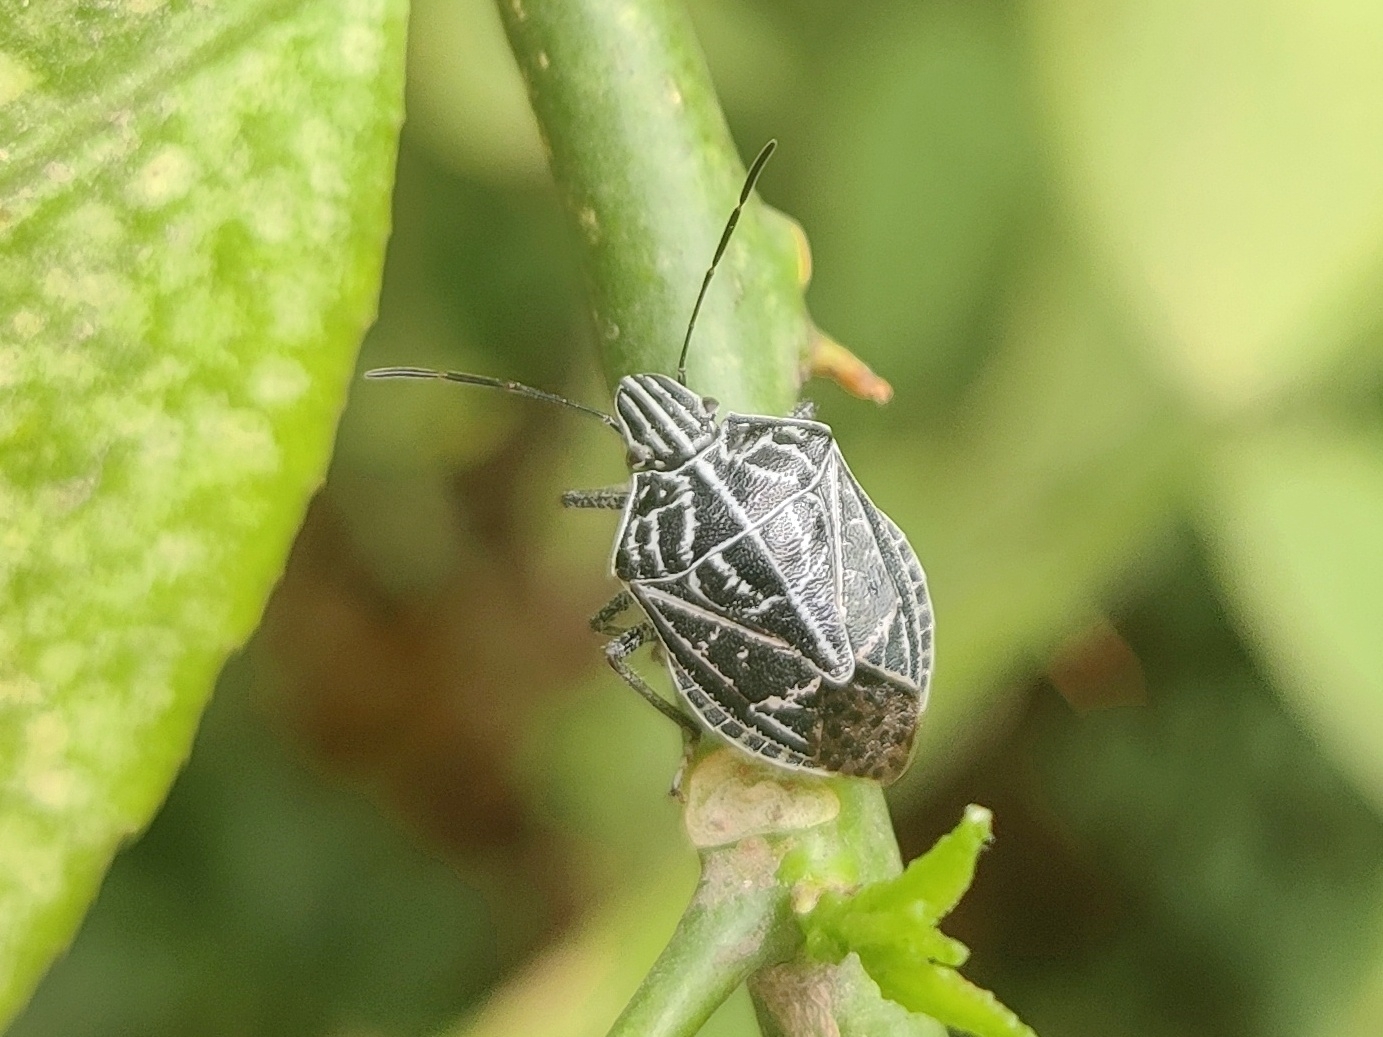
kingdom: Animalia
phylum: Arthropoda
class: Insecta
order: Hemiptera
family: Pentatomidae
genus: Cappaea
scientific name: Cappaea taprobanensis
